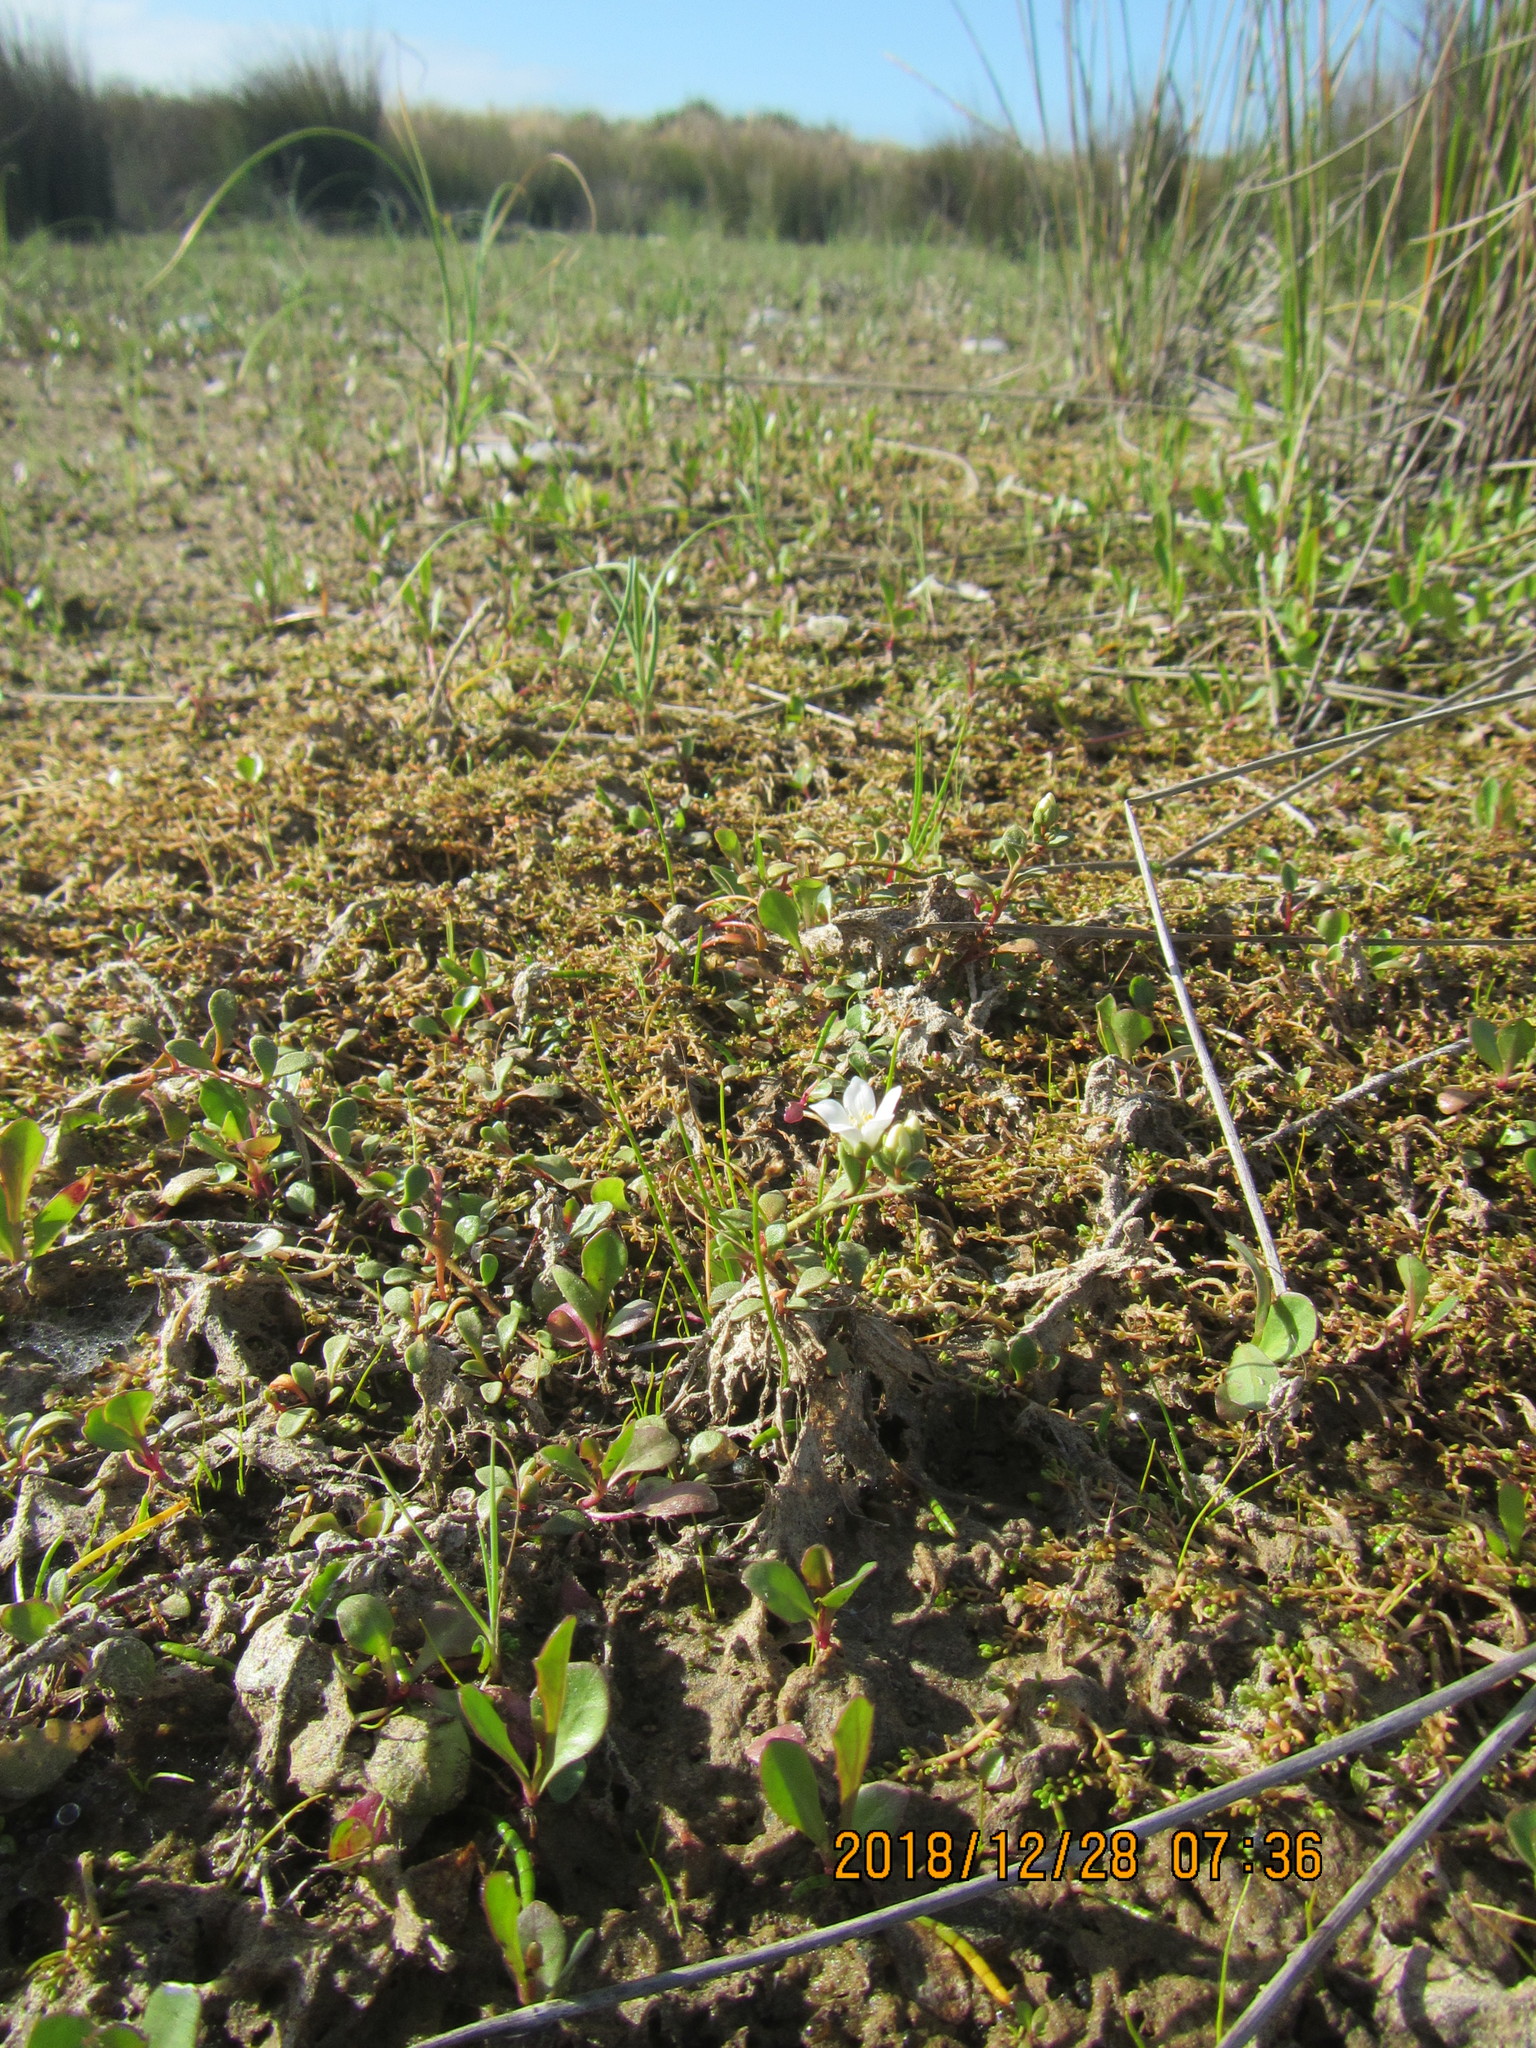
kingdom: Plantae
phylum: Tracheophyta
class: Magnoliopsida
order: Ericales
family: Primulaceae
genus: Samolus
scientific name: Samolus repens
